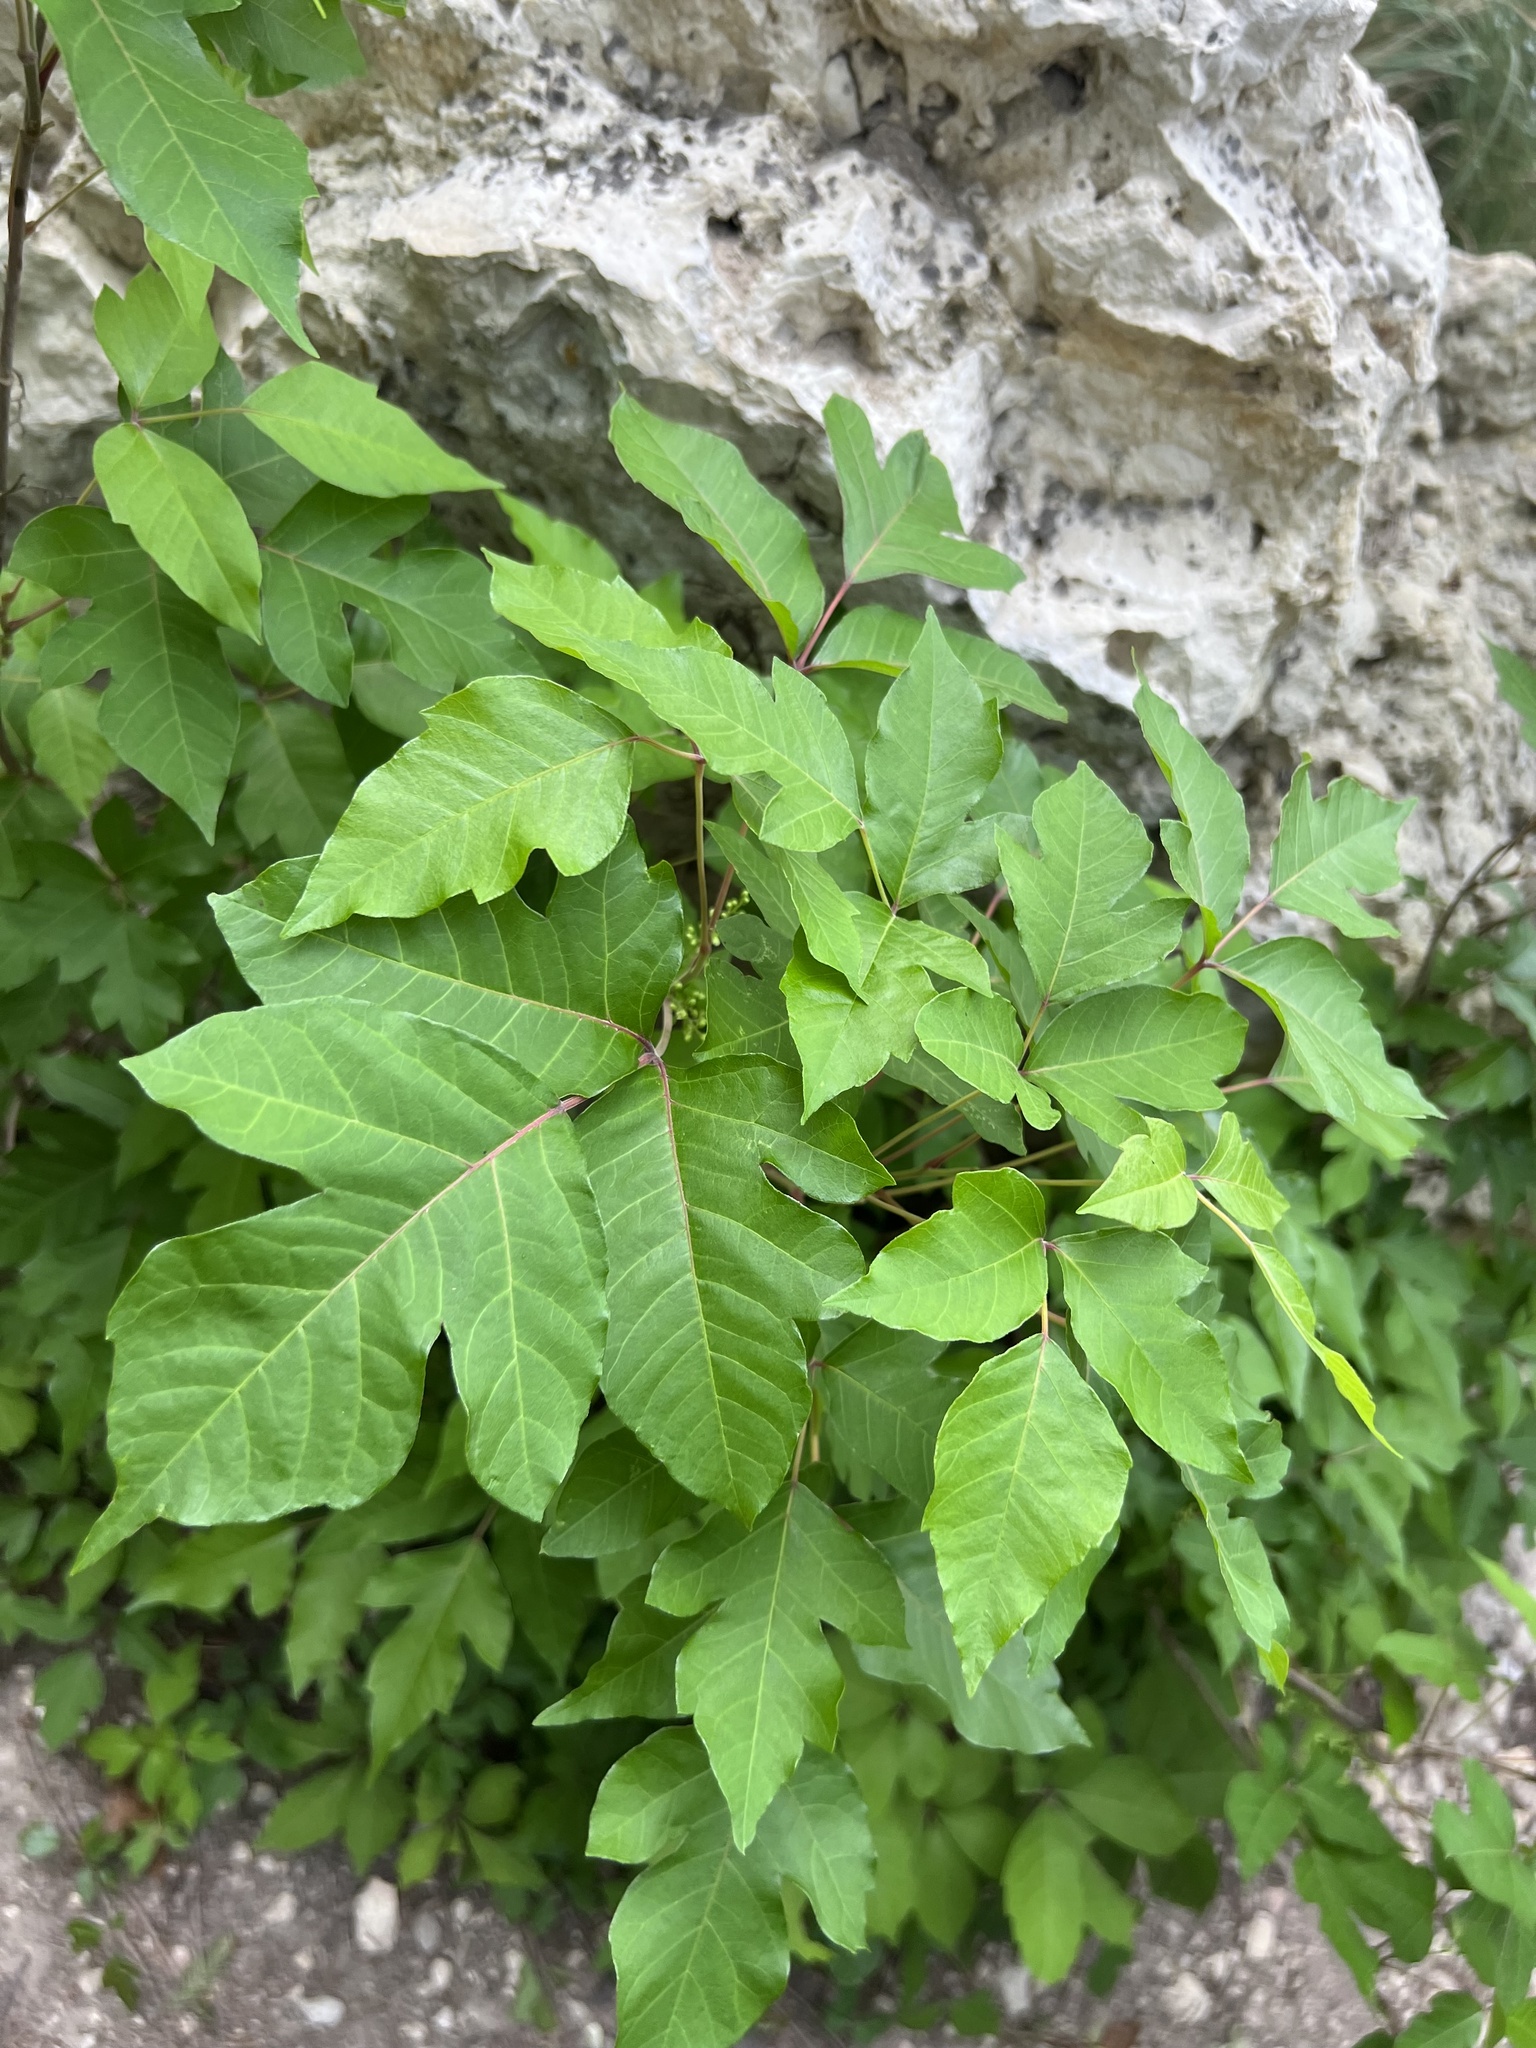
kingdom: Plantae
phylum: Tracheophyta
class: Magnoliopsida
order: Sapindales
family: Anacardiaceae
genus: Toxicodendron
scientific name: Toxicodendron radicans
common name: Poison ivy
